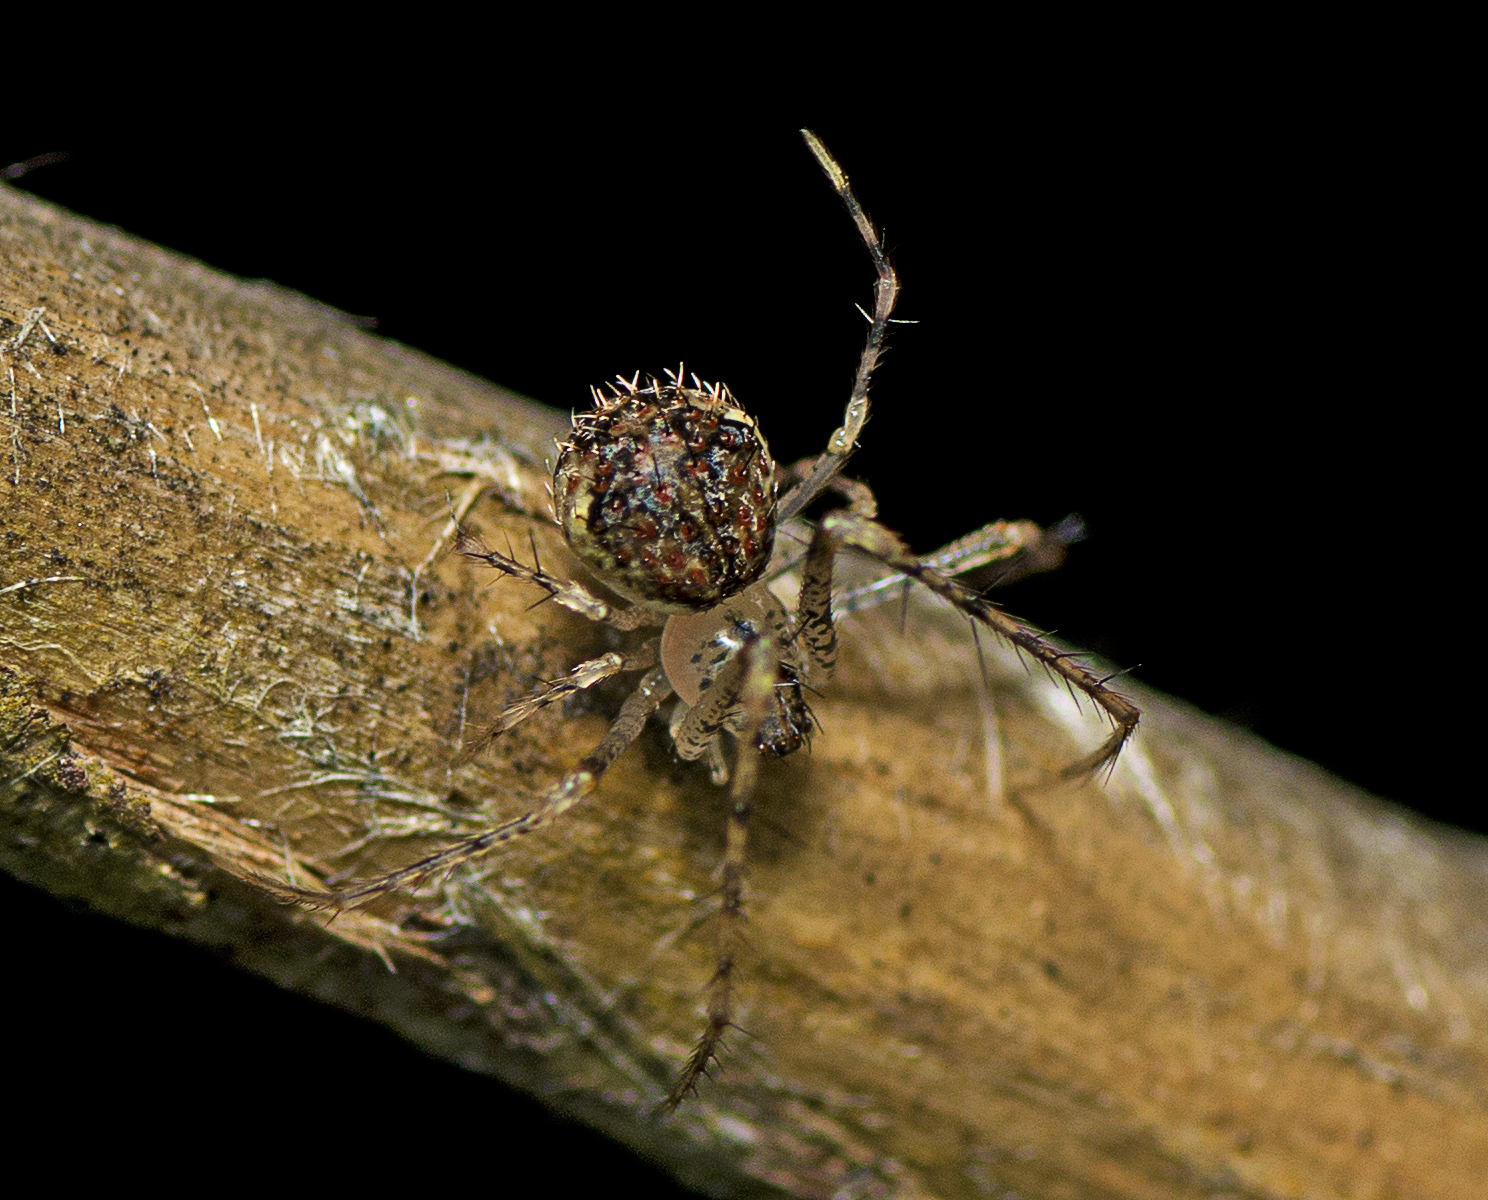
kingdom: Animalia
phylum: Arthropoda
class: Arachnida
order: Araneae
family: Mimetidae
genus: Australomimetus
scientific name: Australomimetus spinosus
